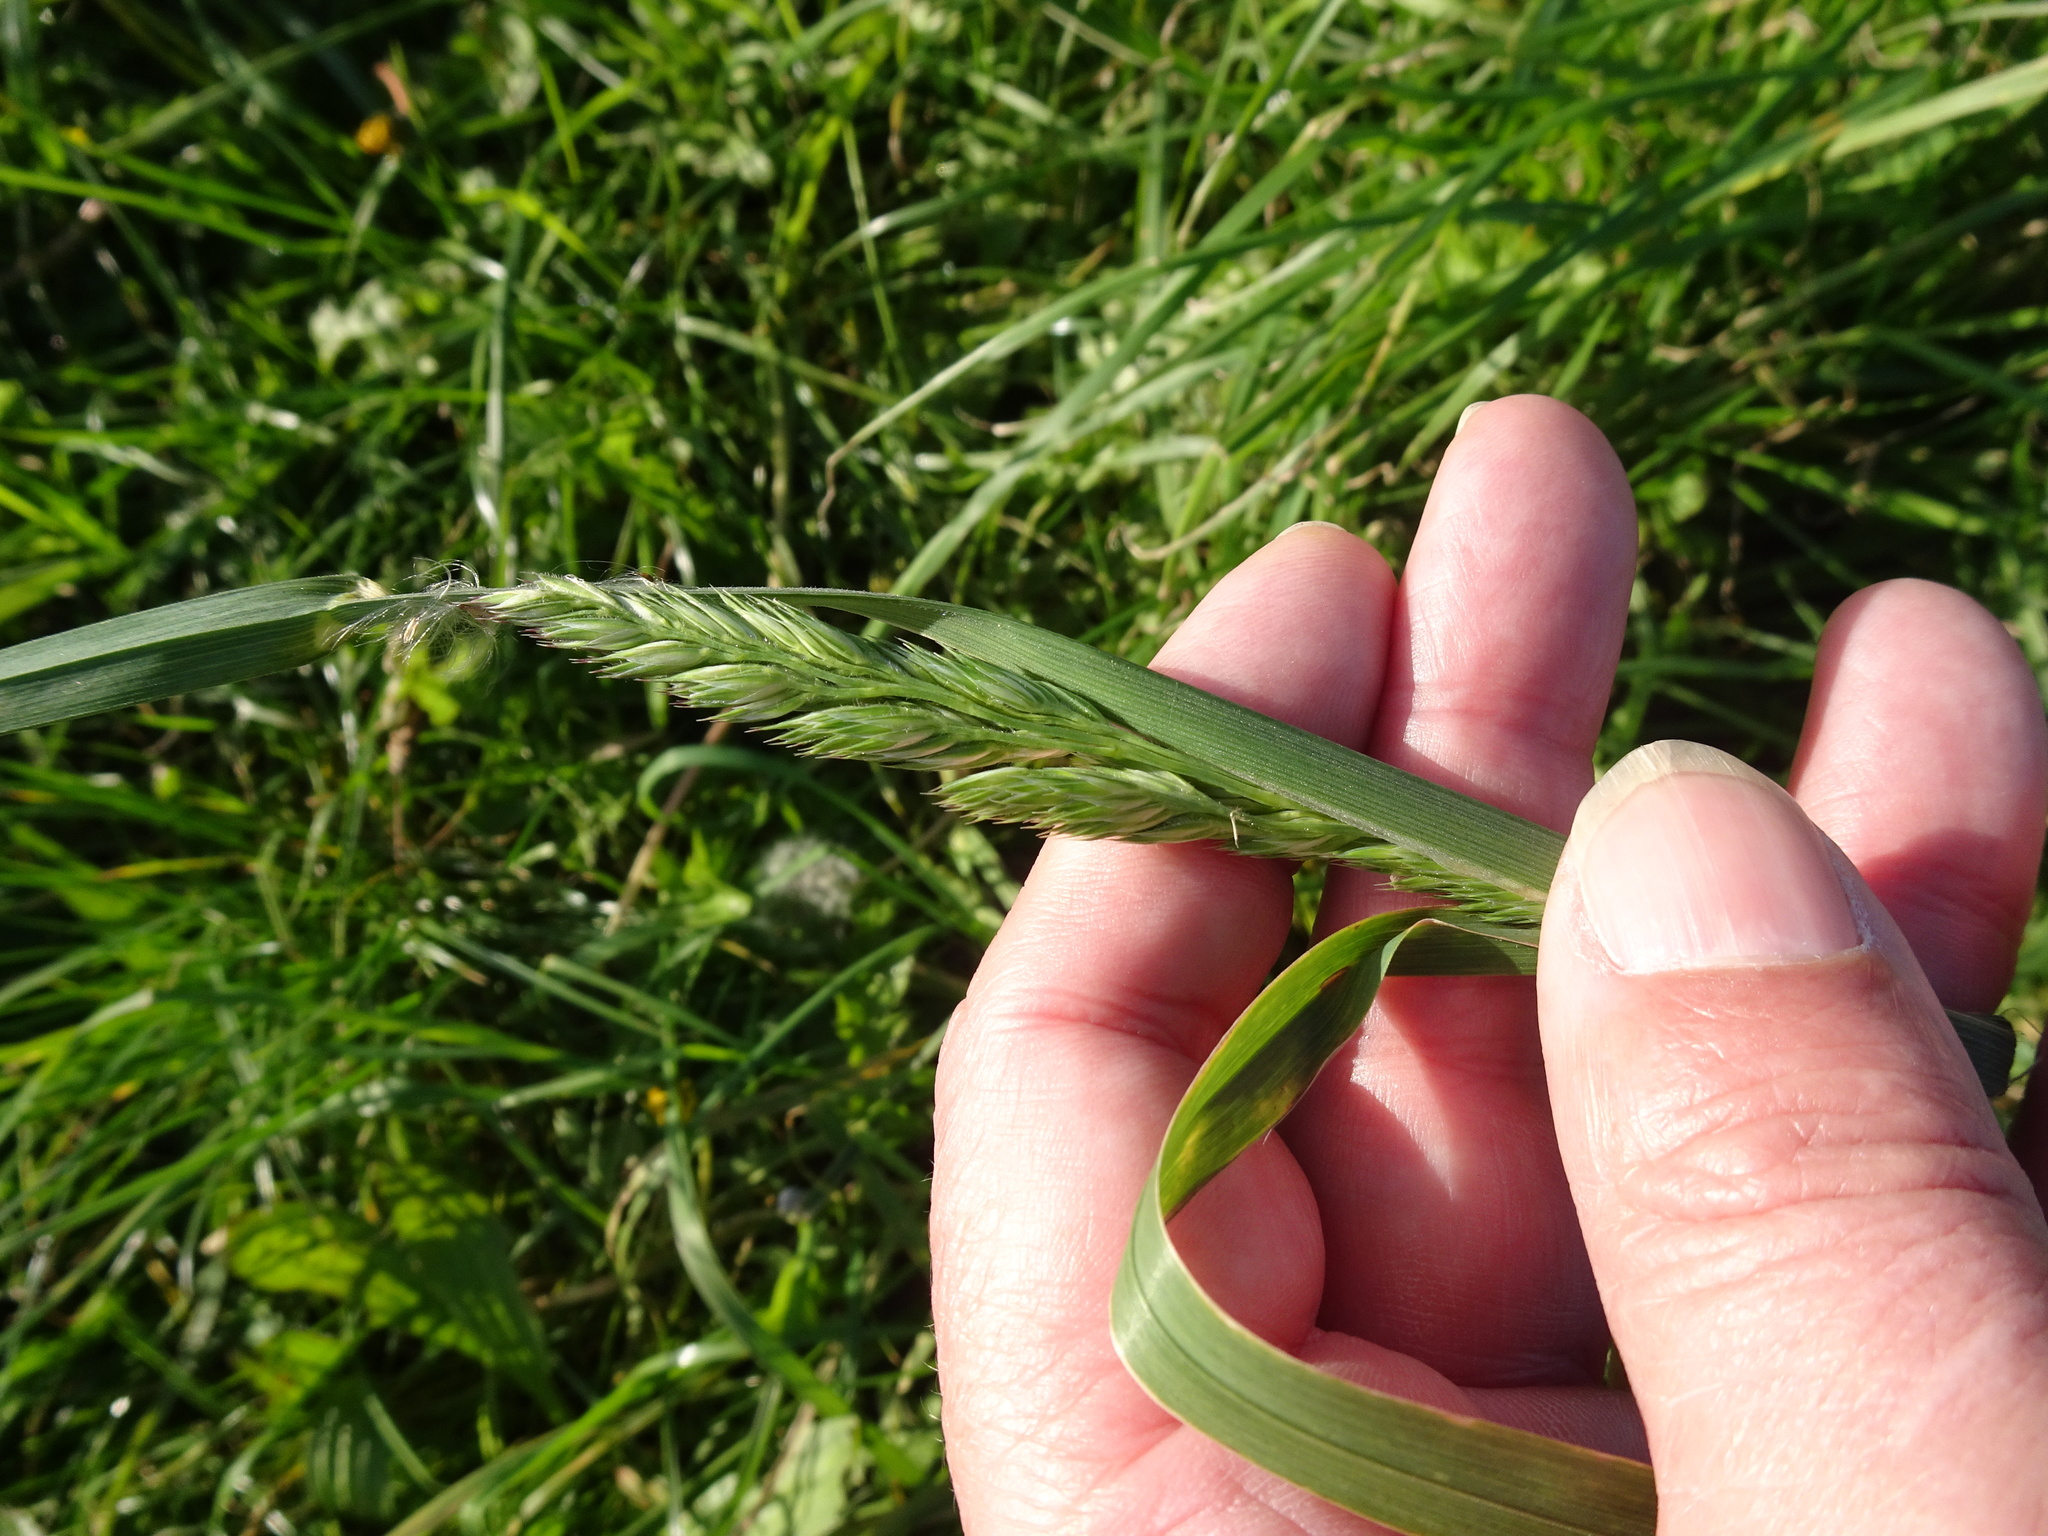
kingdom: Plantae
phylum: Tracheophyta
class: Liliopsida
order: Poales
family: Poaceae
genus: Dactylis
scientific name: Dactylis glomerata
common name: Orchardgrass
